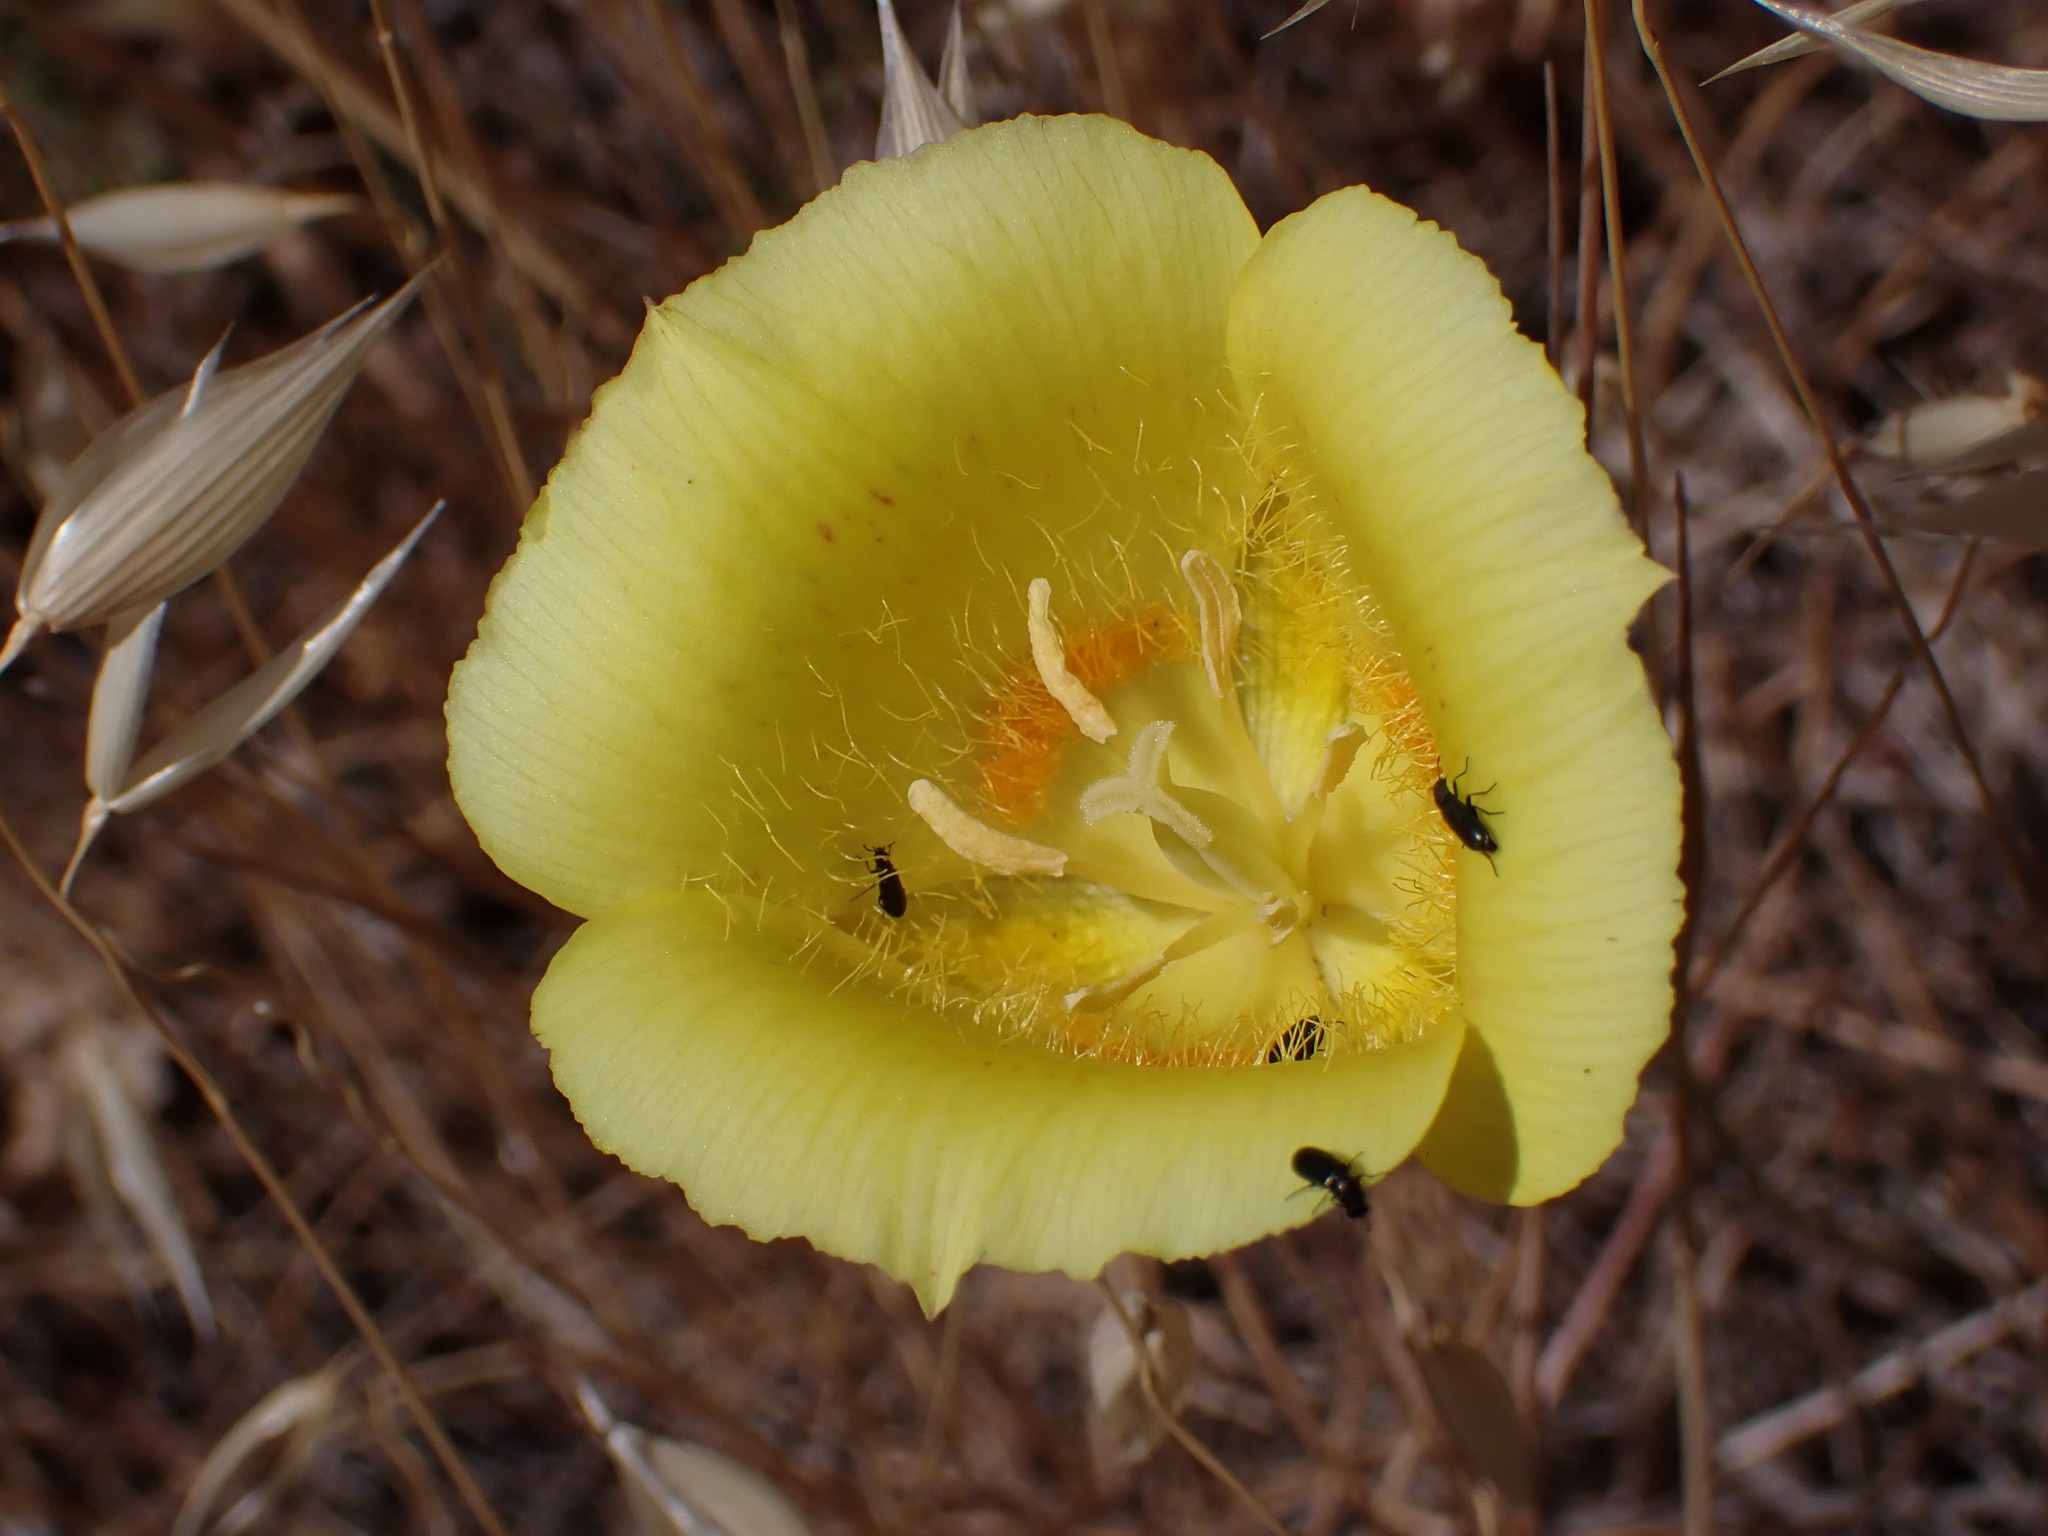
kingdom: Plantae
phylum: Tracheophyta
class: Liliopsida
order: Liliales
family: Liliaceae
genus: Calochortus
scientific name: Calochortus luteus
